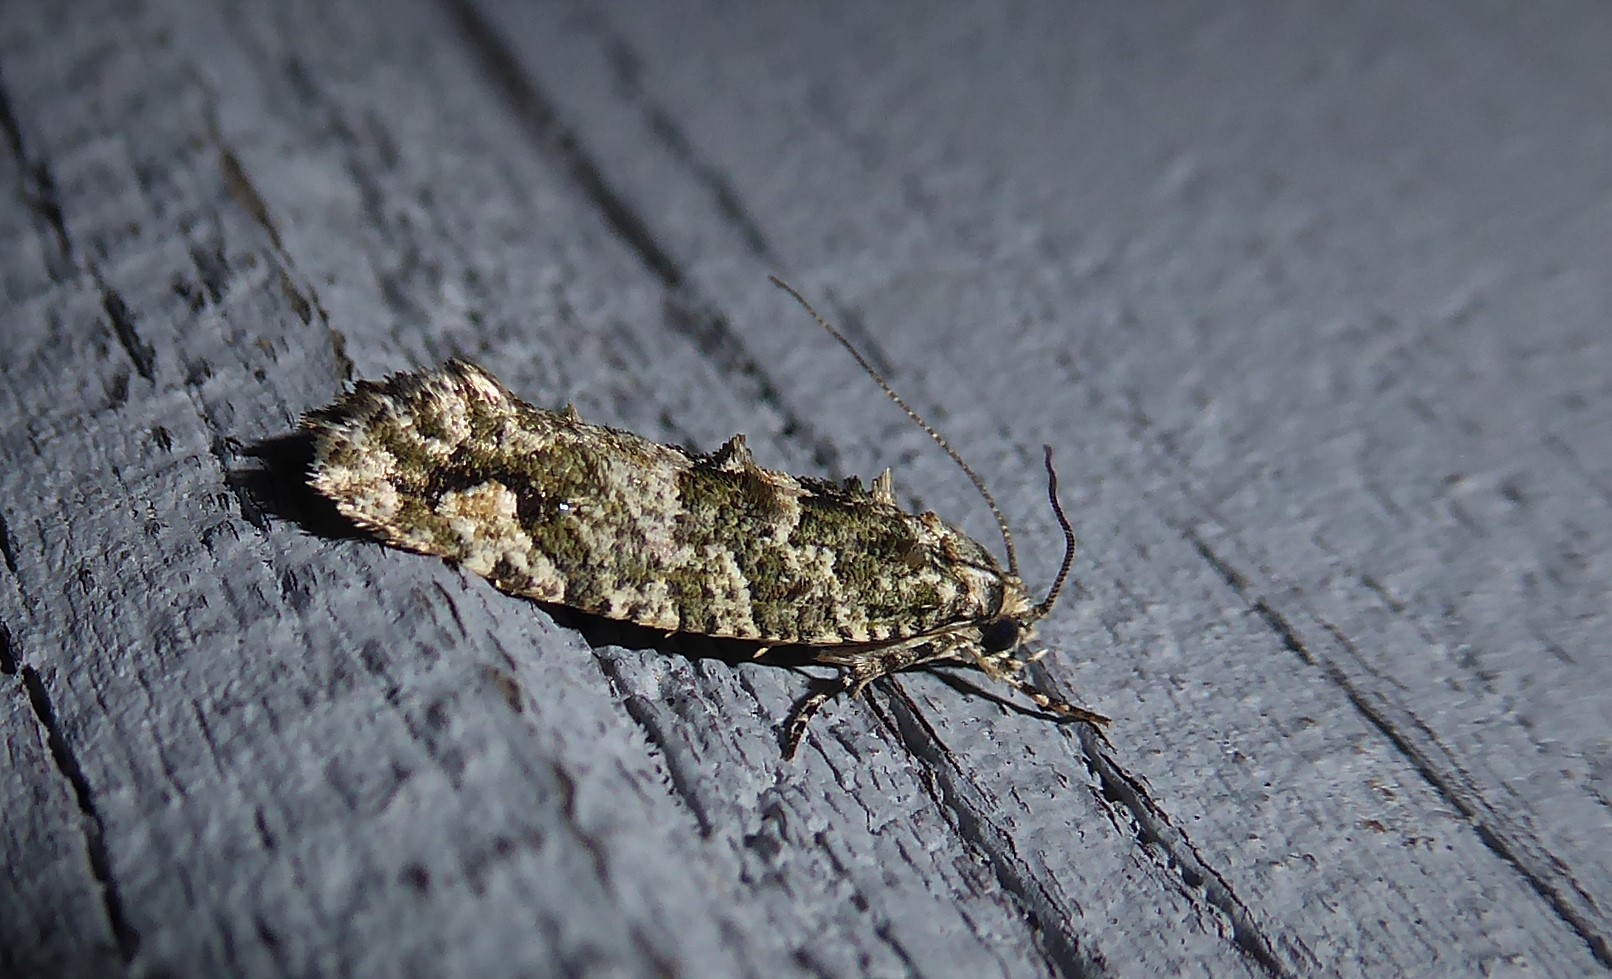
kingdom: Animalia
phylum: Arthropoda
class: Insecta
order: Lepidoptera
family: Tineidae
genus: Lysiphragma
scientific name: Lysiphragma howesii
